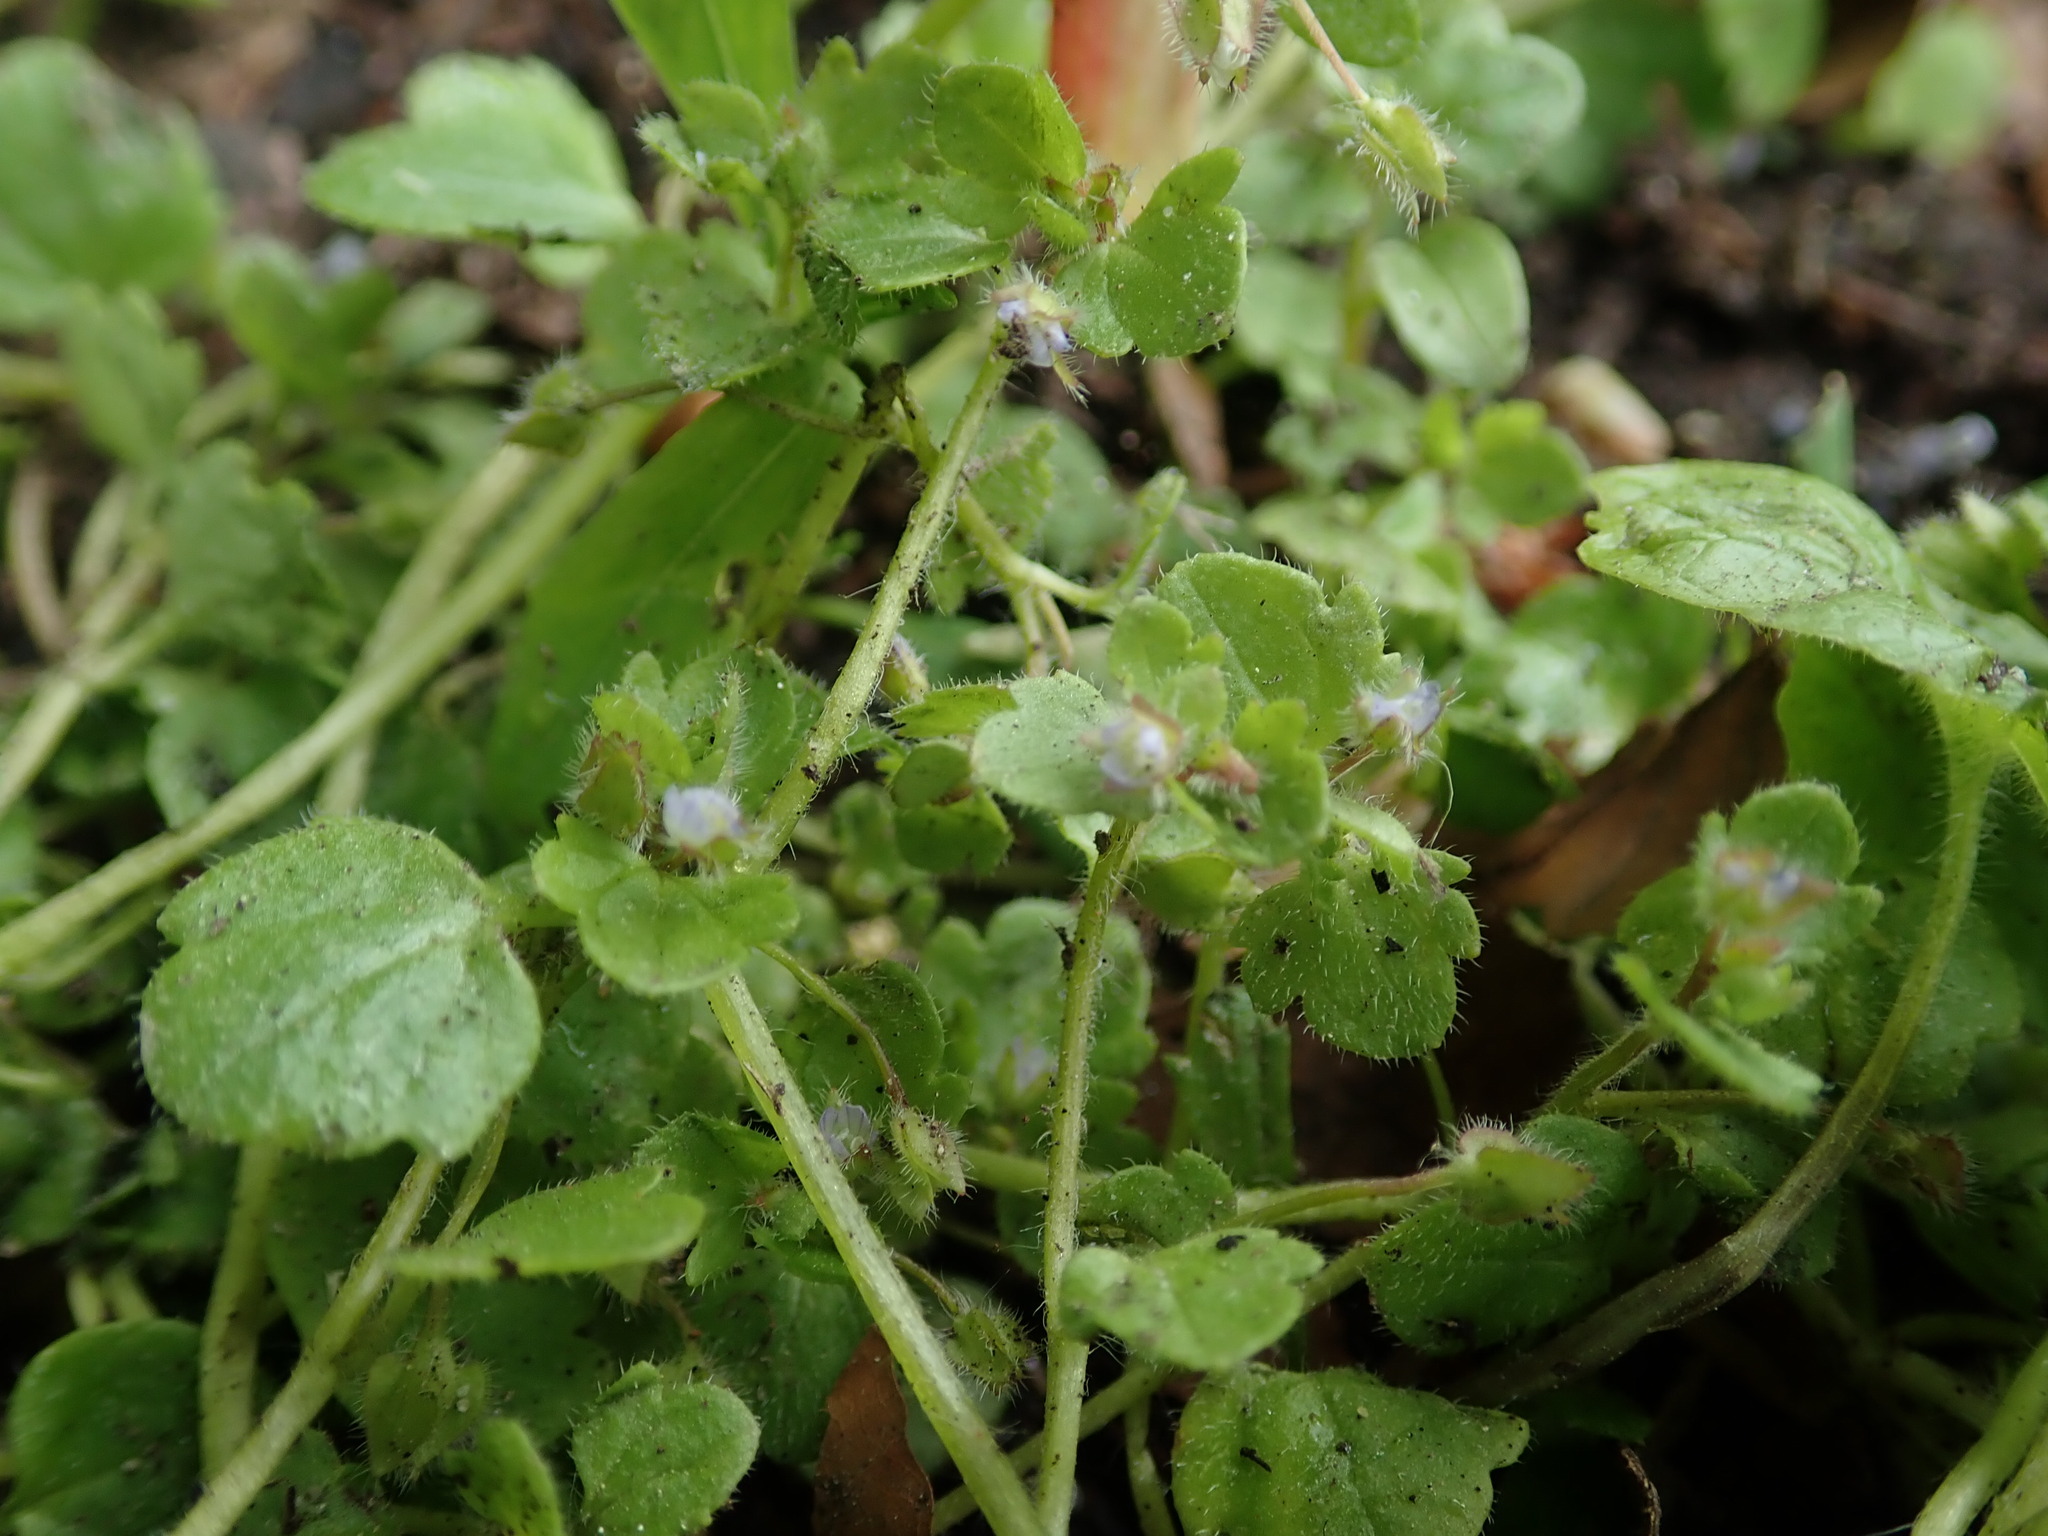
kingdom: Plantae
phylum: Tracheophyta
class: Magnoliopsida
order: Lamiales
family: Plantaginaceae
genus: Veronica
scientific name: Veronica sublobata
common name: False ivy-leaved speedwell
